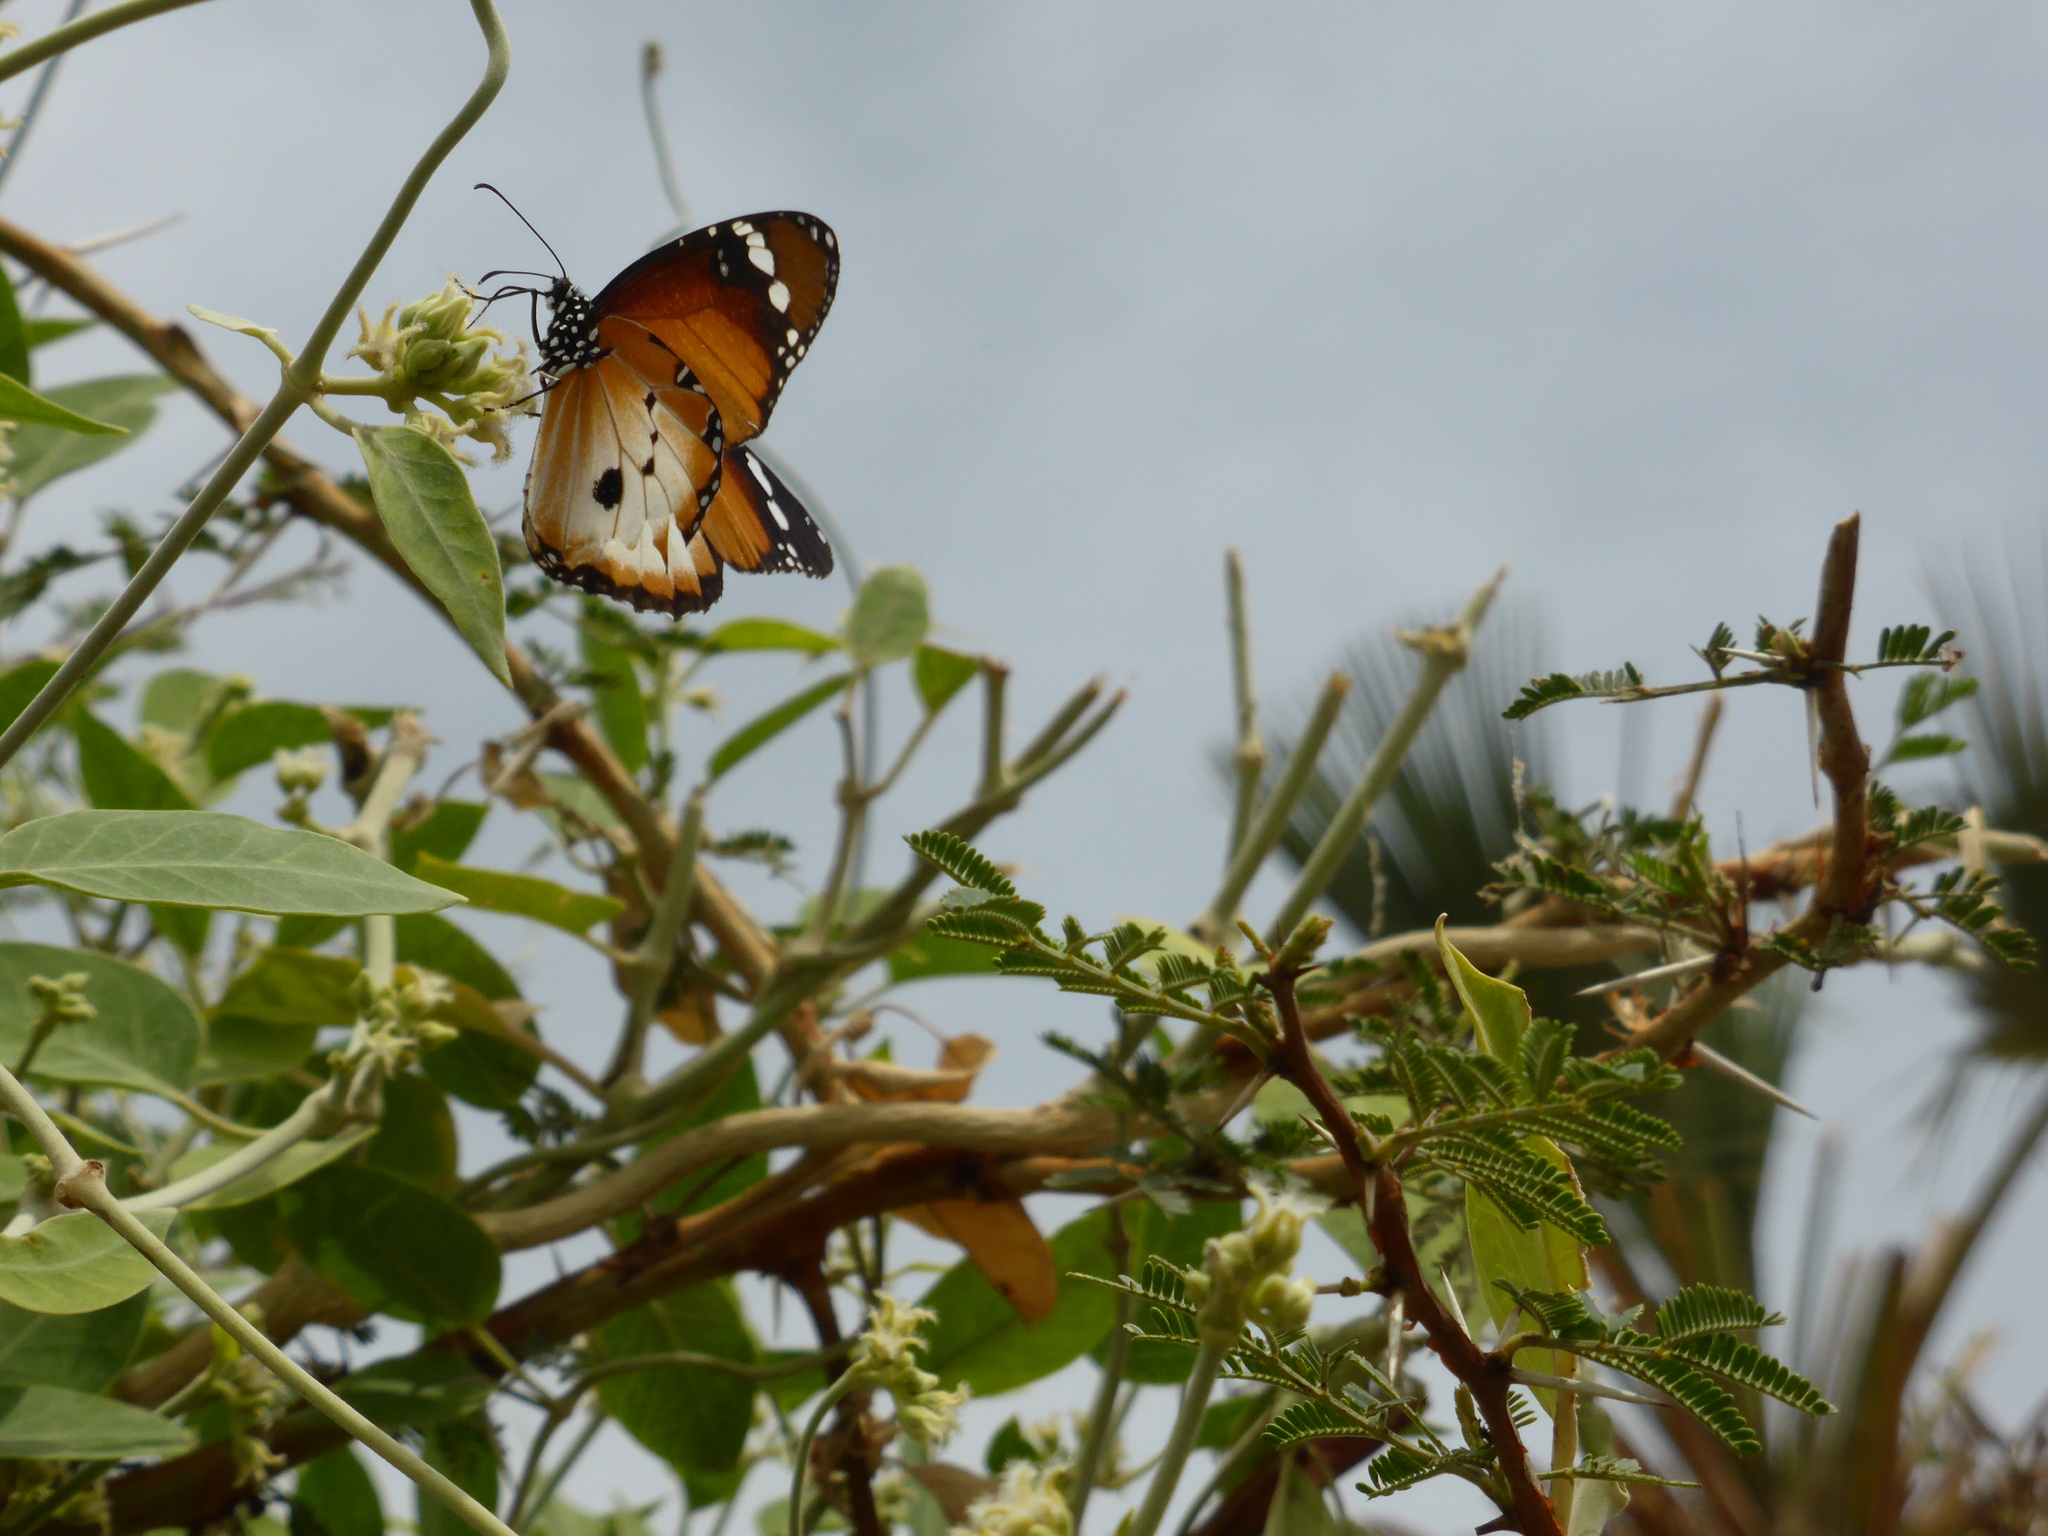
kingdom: Animalia
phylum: Arthropoda
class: Insecta
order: Lepidoptera
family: Nymphalidae
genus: Danaus
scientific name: Danaus chrysippus
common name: Plain tiger
